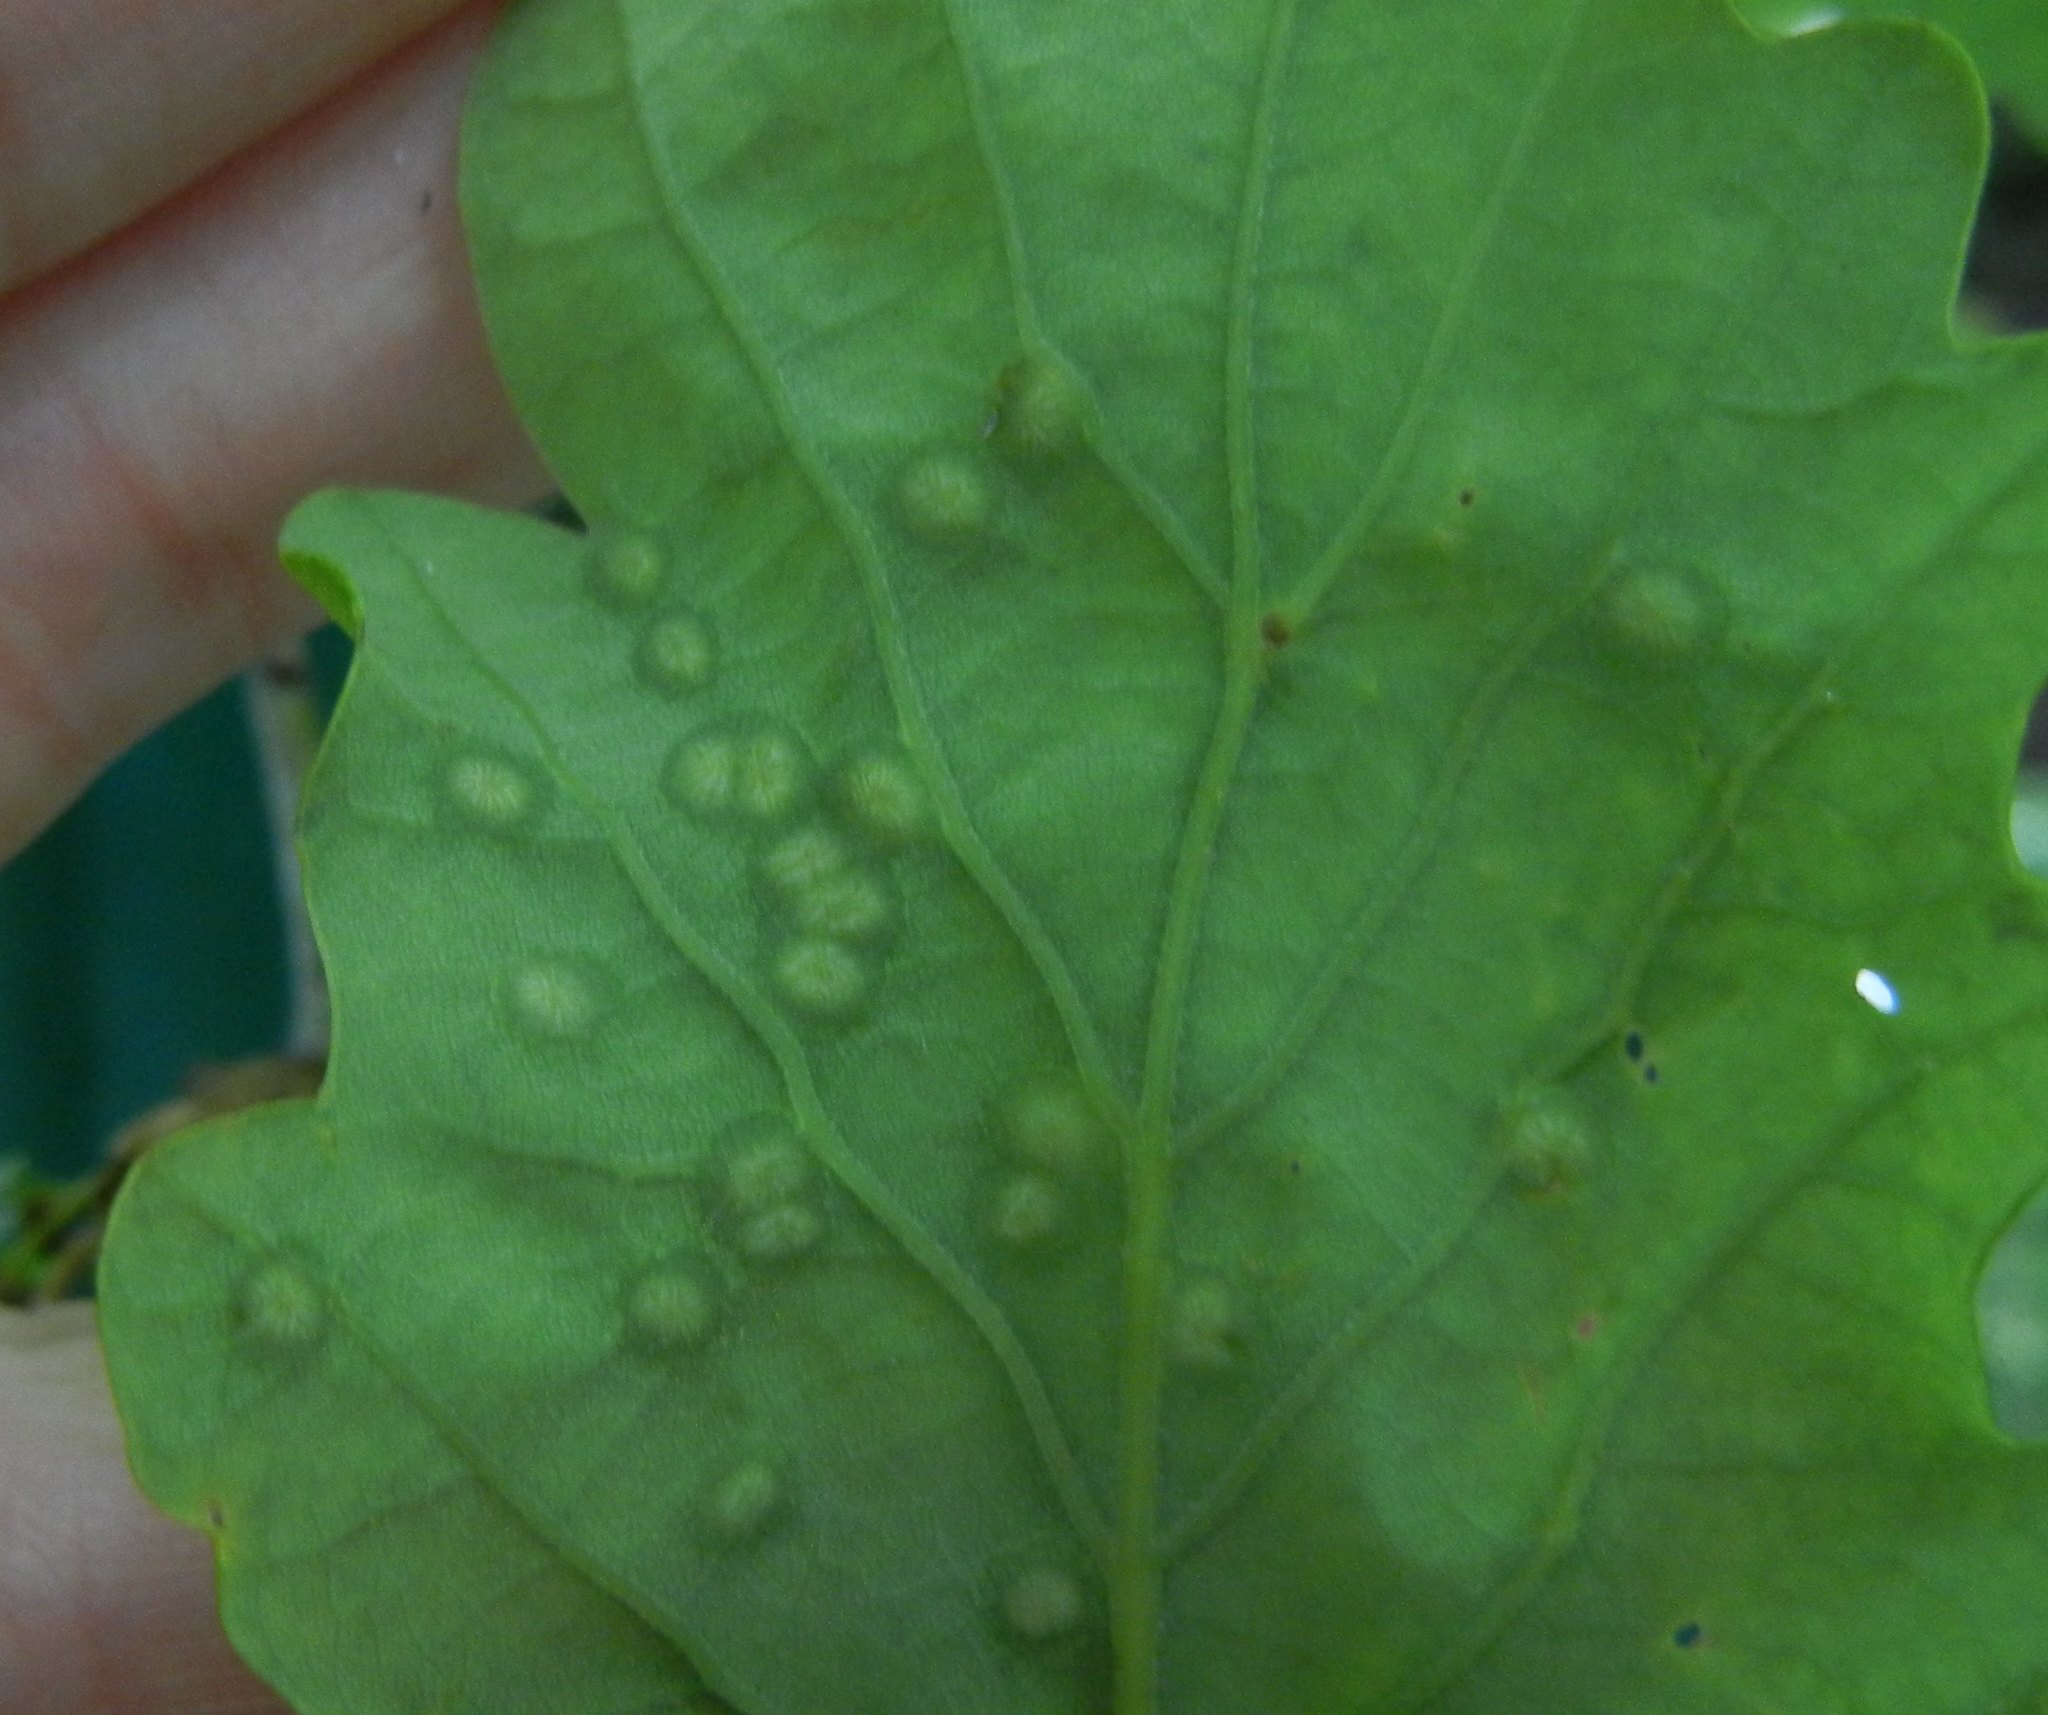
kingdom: Animalia
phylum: Arthropoda
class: Insecta
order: Hymenoptera
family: Cynipidae
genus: Neuroterus
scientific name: Neuroterus numismalis
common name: Silk-button spangle gall
